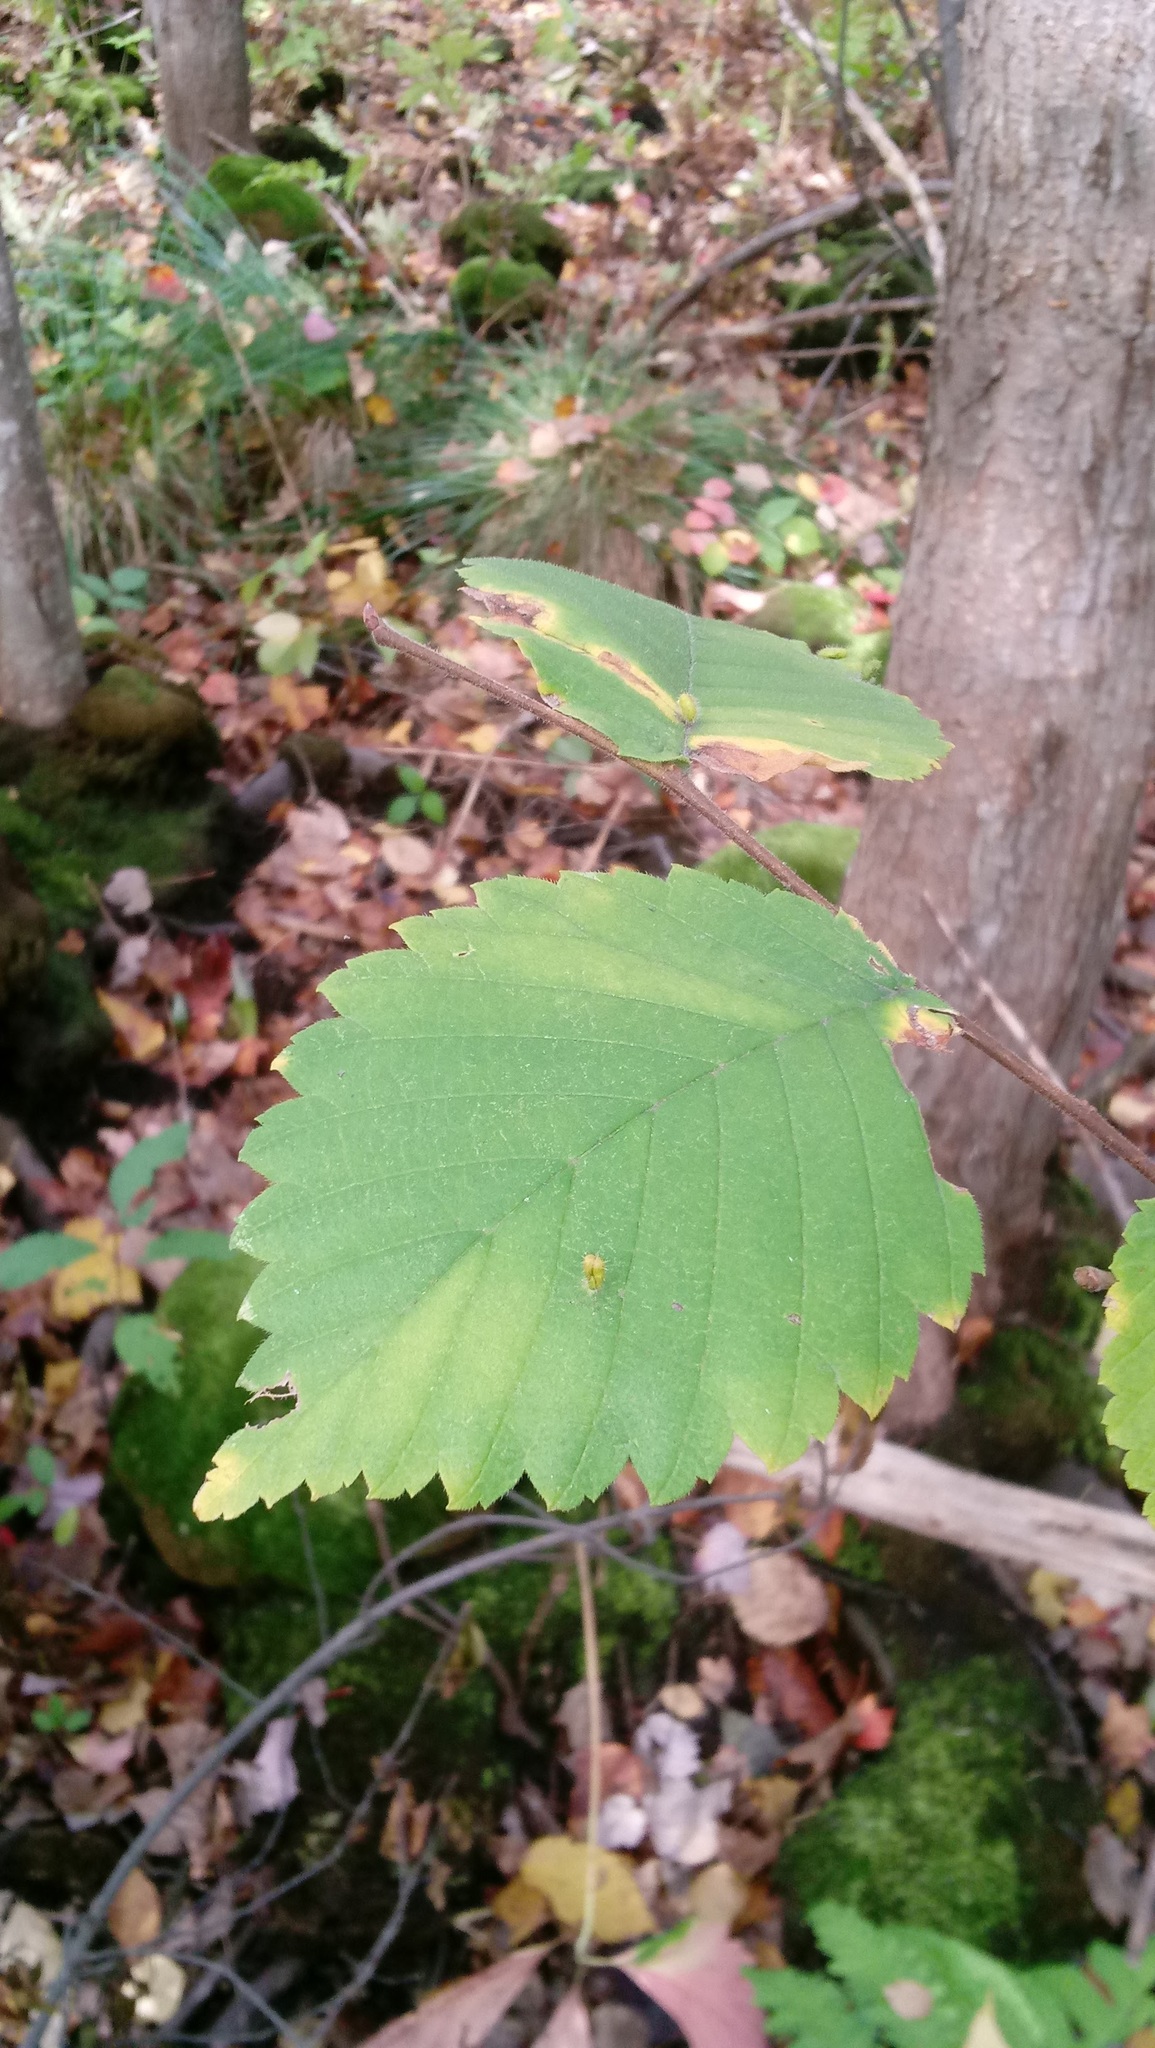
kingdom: Animalia
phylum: Arthropoda
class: Arachnida
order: Trombidiformes
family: Eriophyidae
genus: Aceria
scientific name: Aceria
